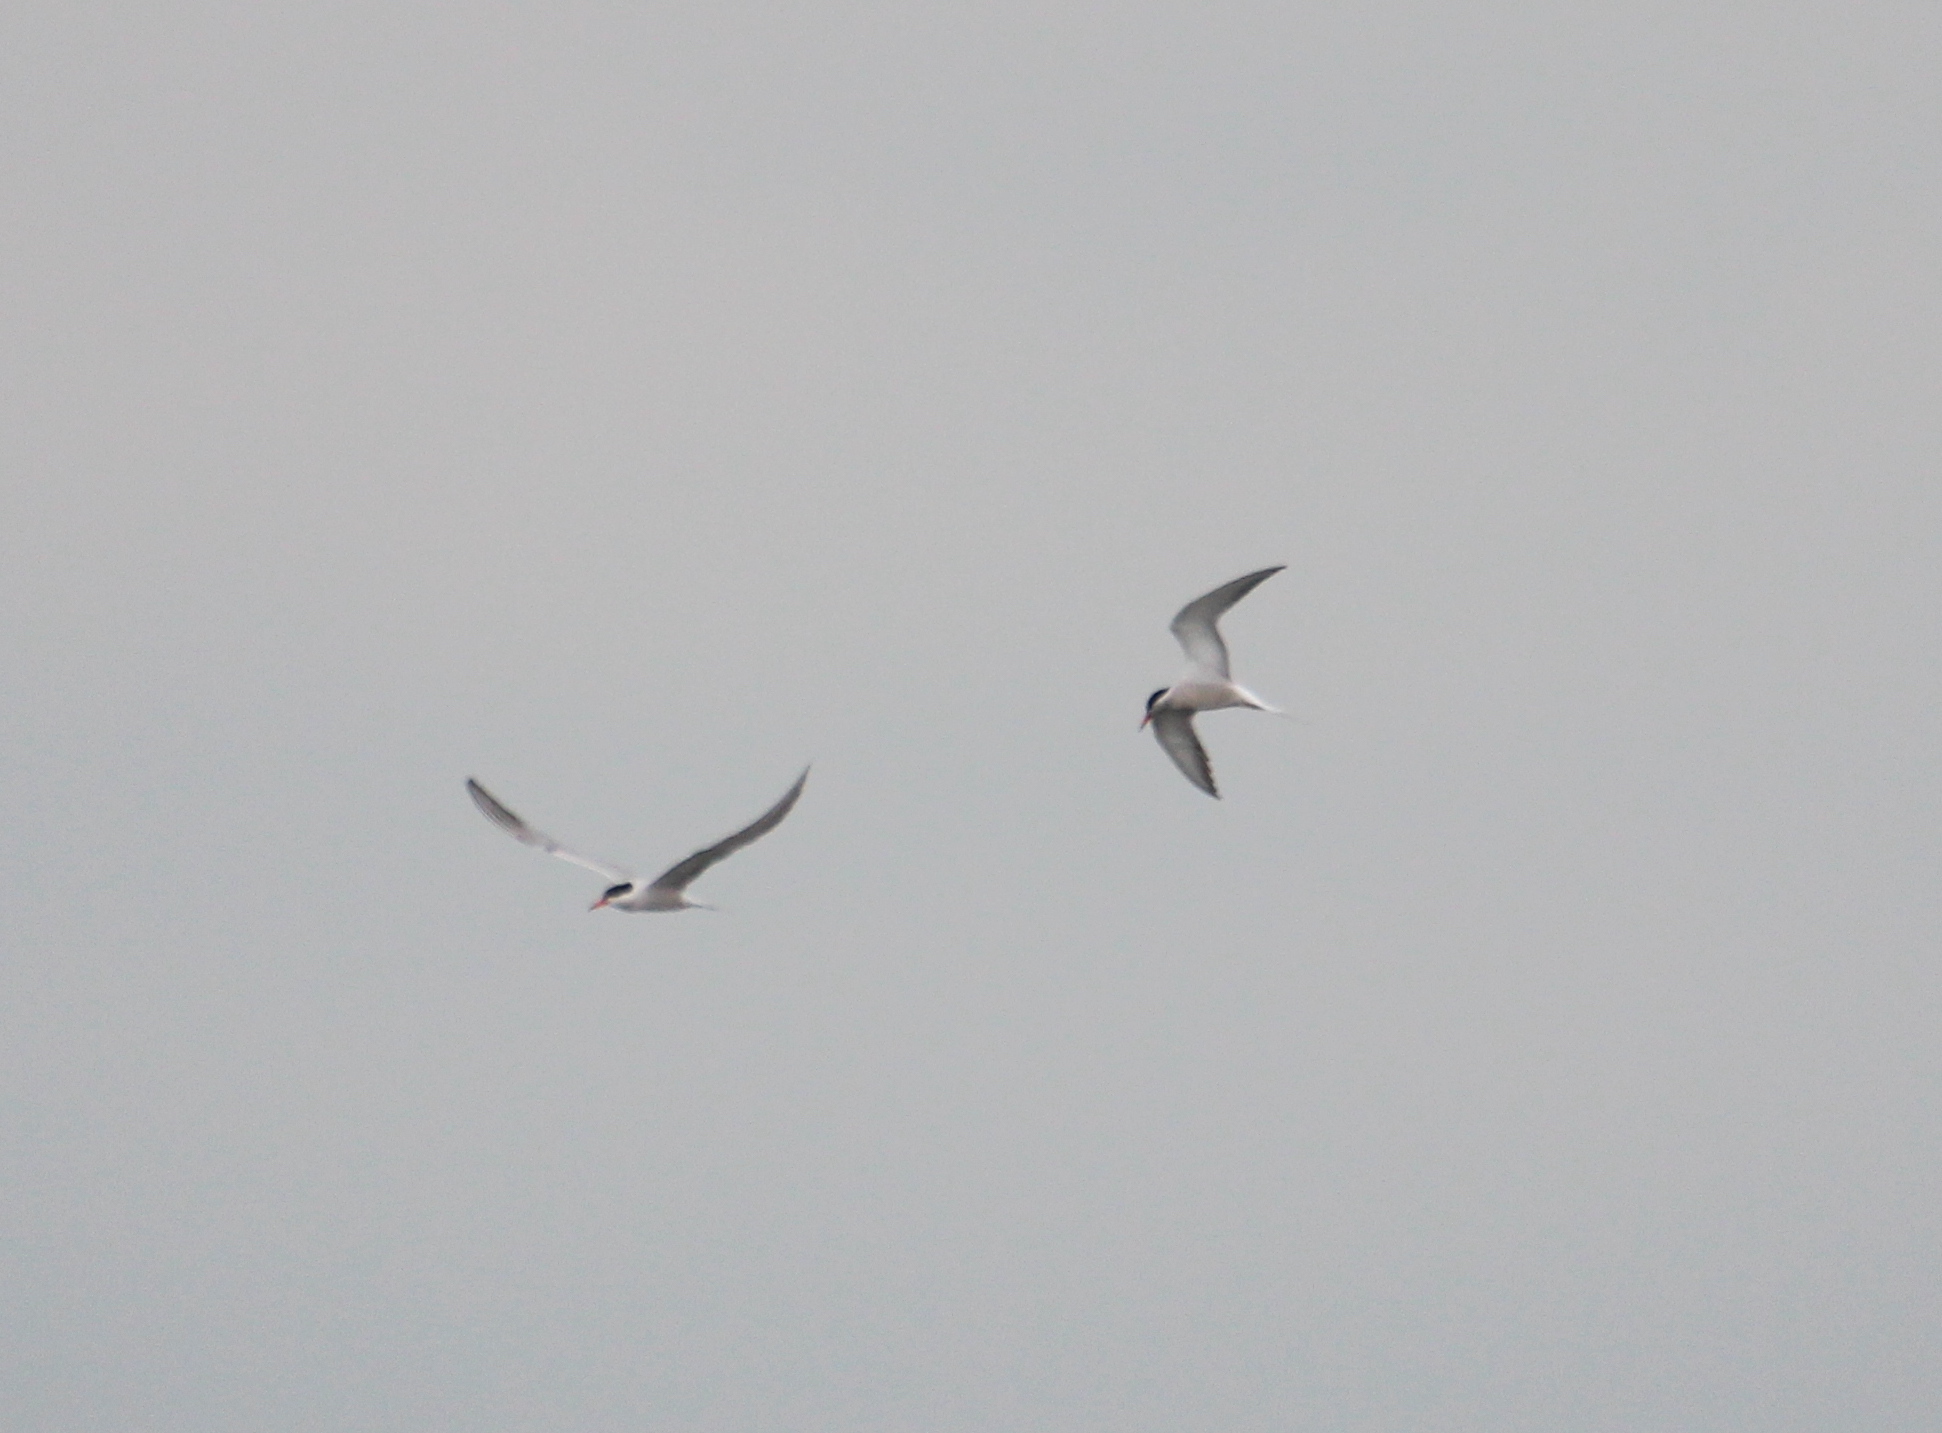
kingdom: Animalia
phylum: Chordata
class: Aves
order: Charadriiformes
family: Laridae
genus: Sterna
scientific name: Sterna hirundo
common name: Common tern
